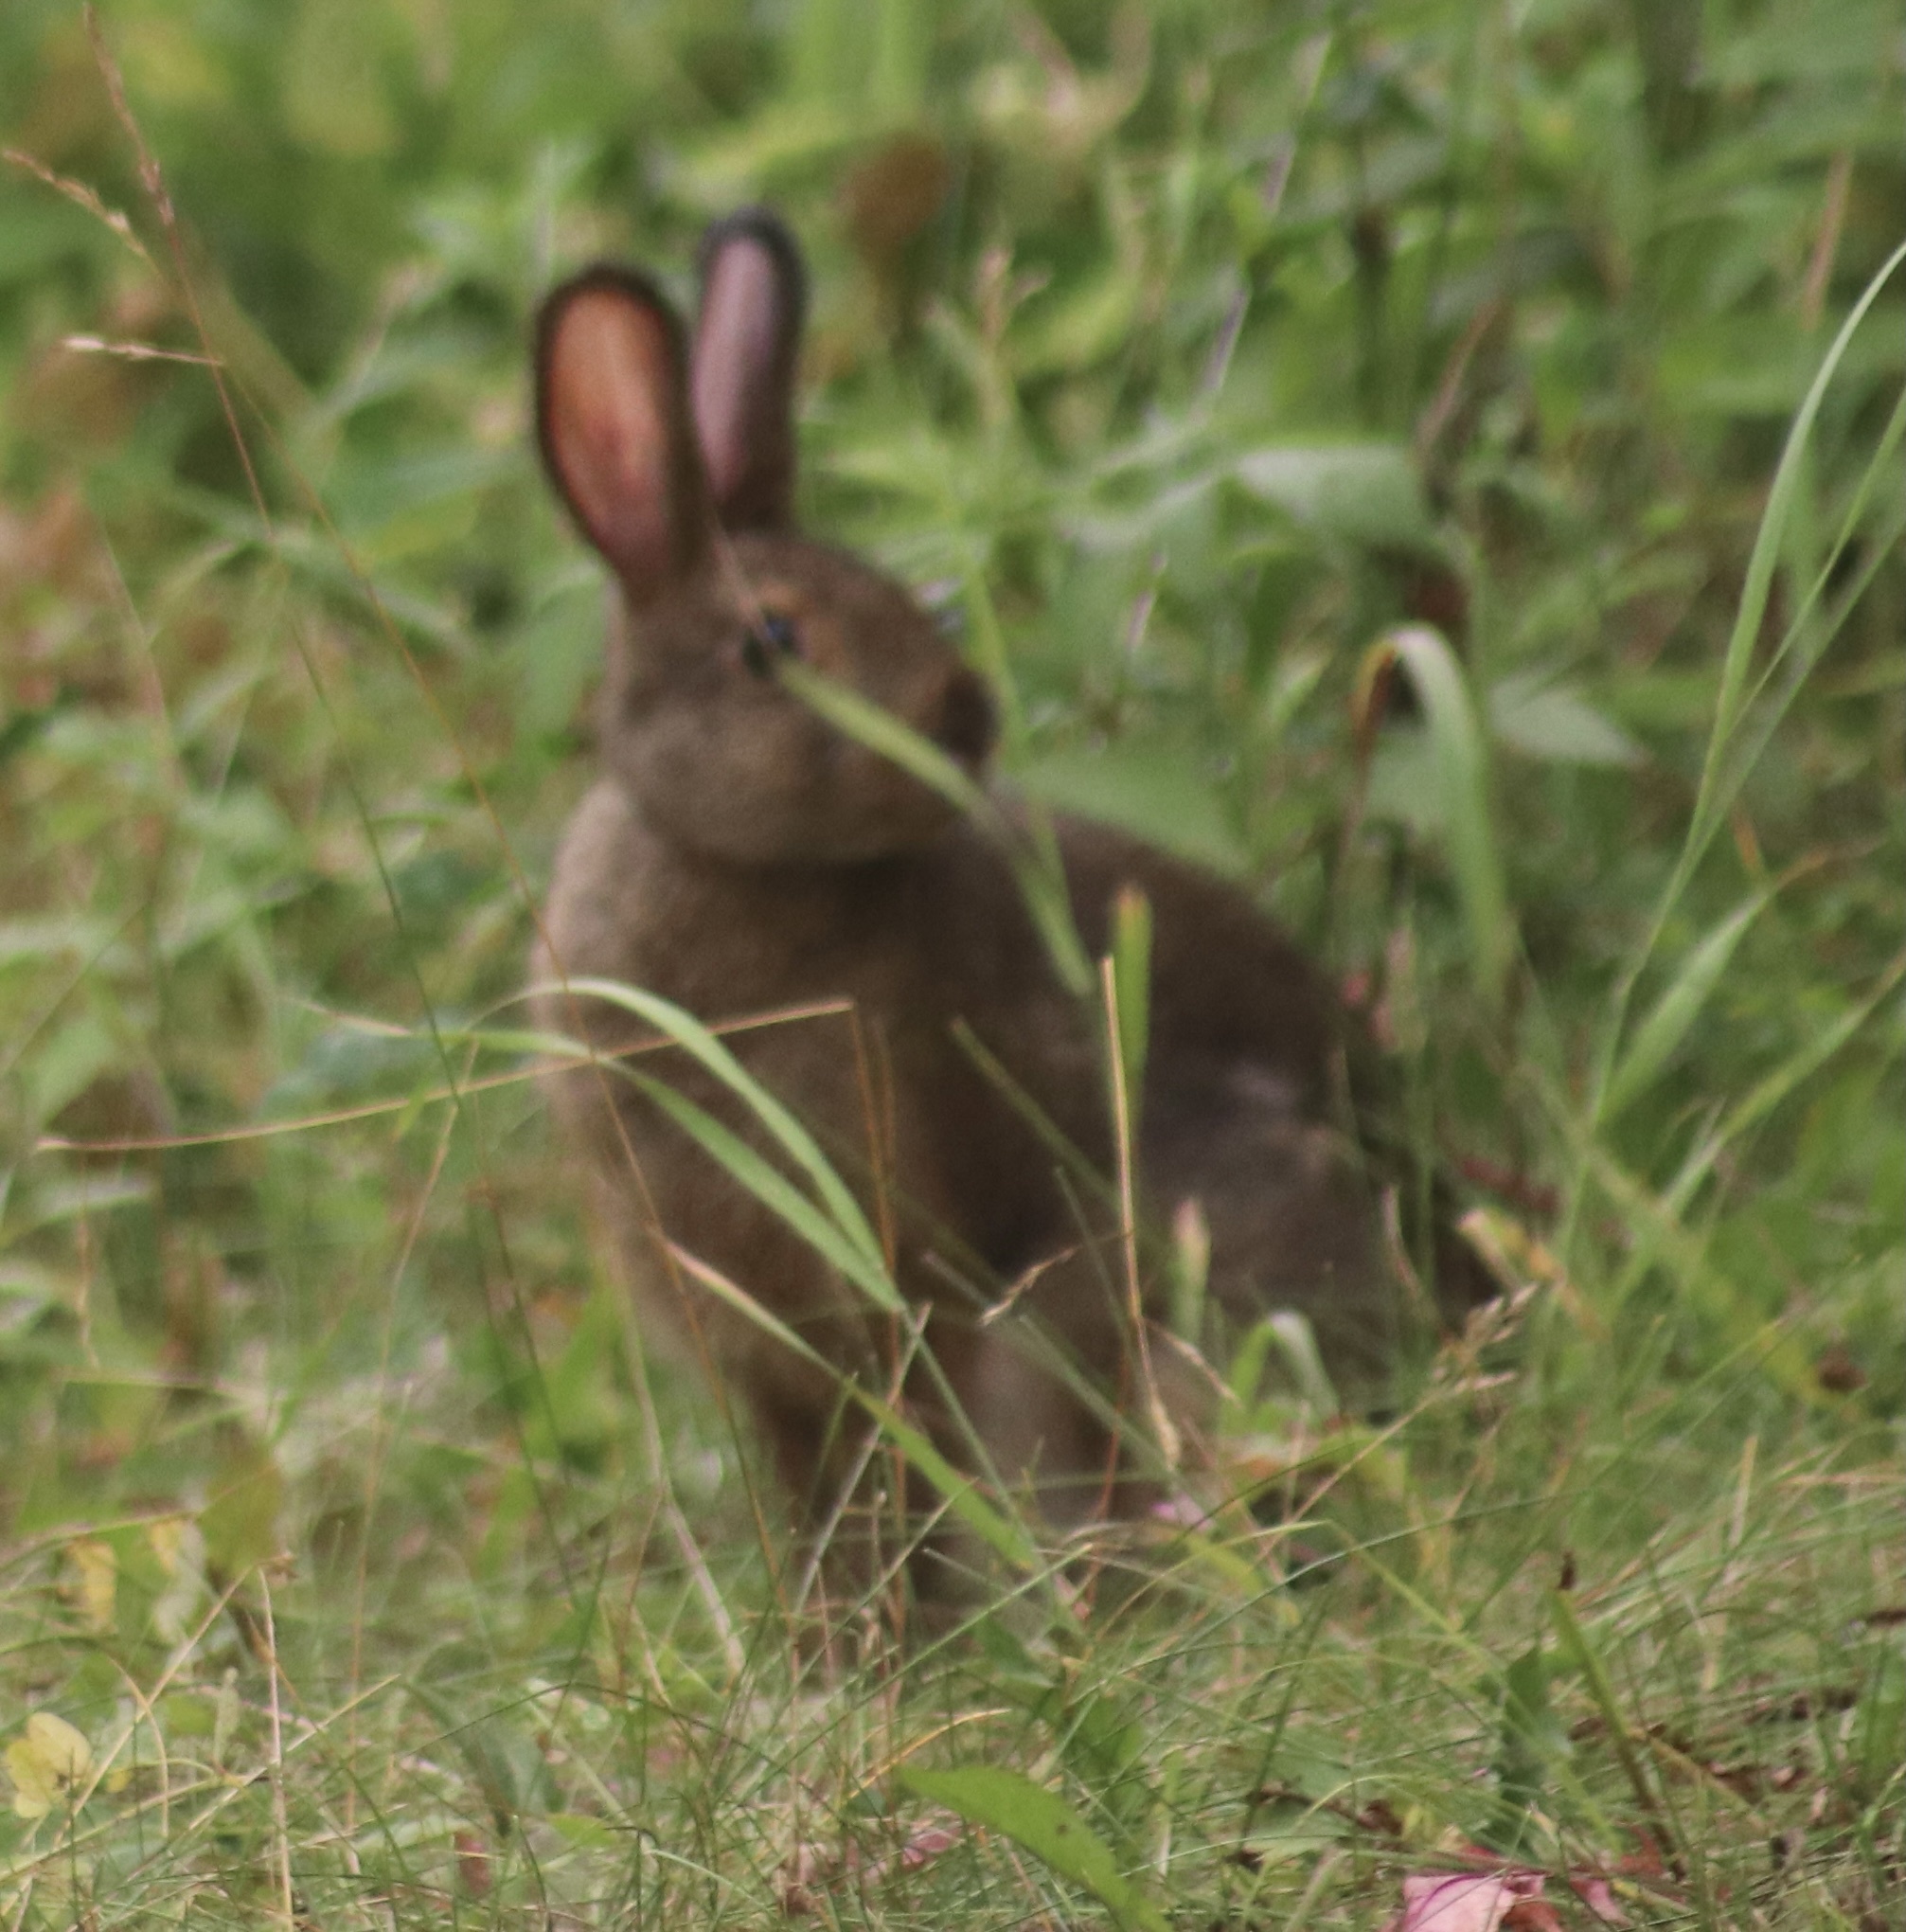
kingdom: Animalia
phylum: Chordata
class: Mammalia
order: Lagomorpha
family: Leporidae
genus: Lepus
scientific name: Lepus americanus
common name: Snowshoe hare
